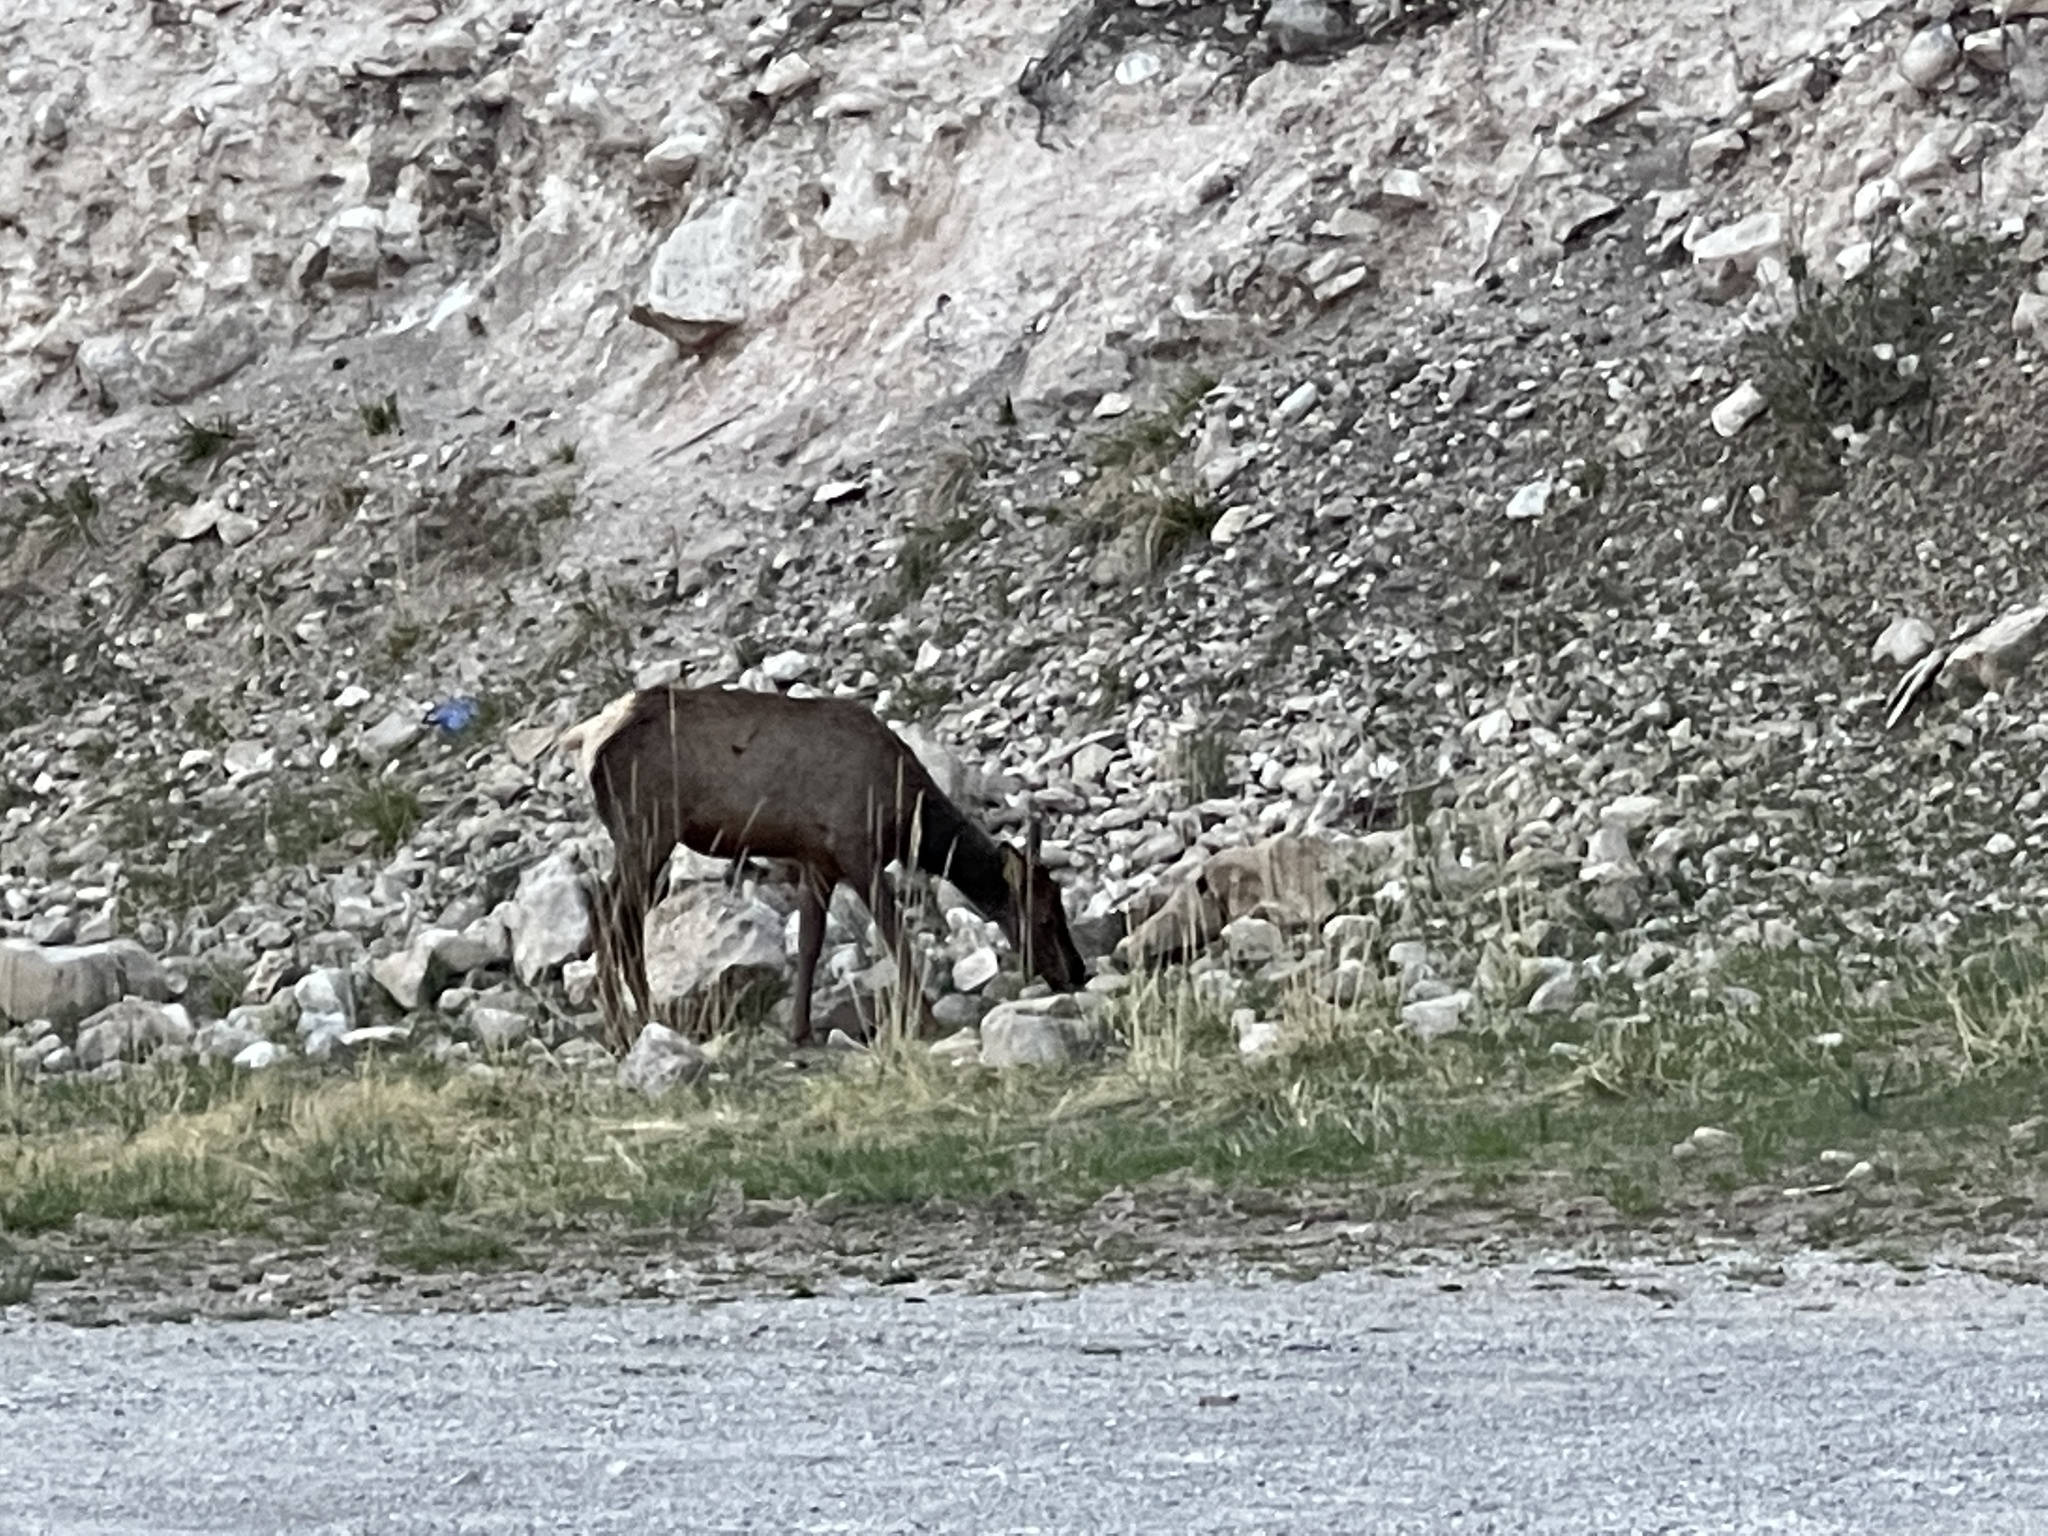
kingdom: Animalia
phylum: Chordata
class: Mammalia
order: Artiodactyla
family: Cervidae
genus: Cervus
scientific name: Cervus elaphus
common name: Red deer
